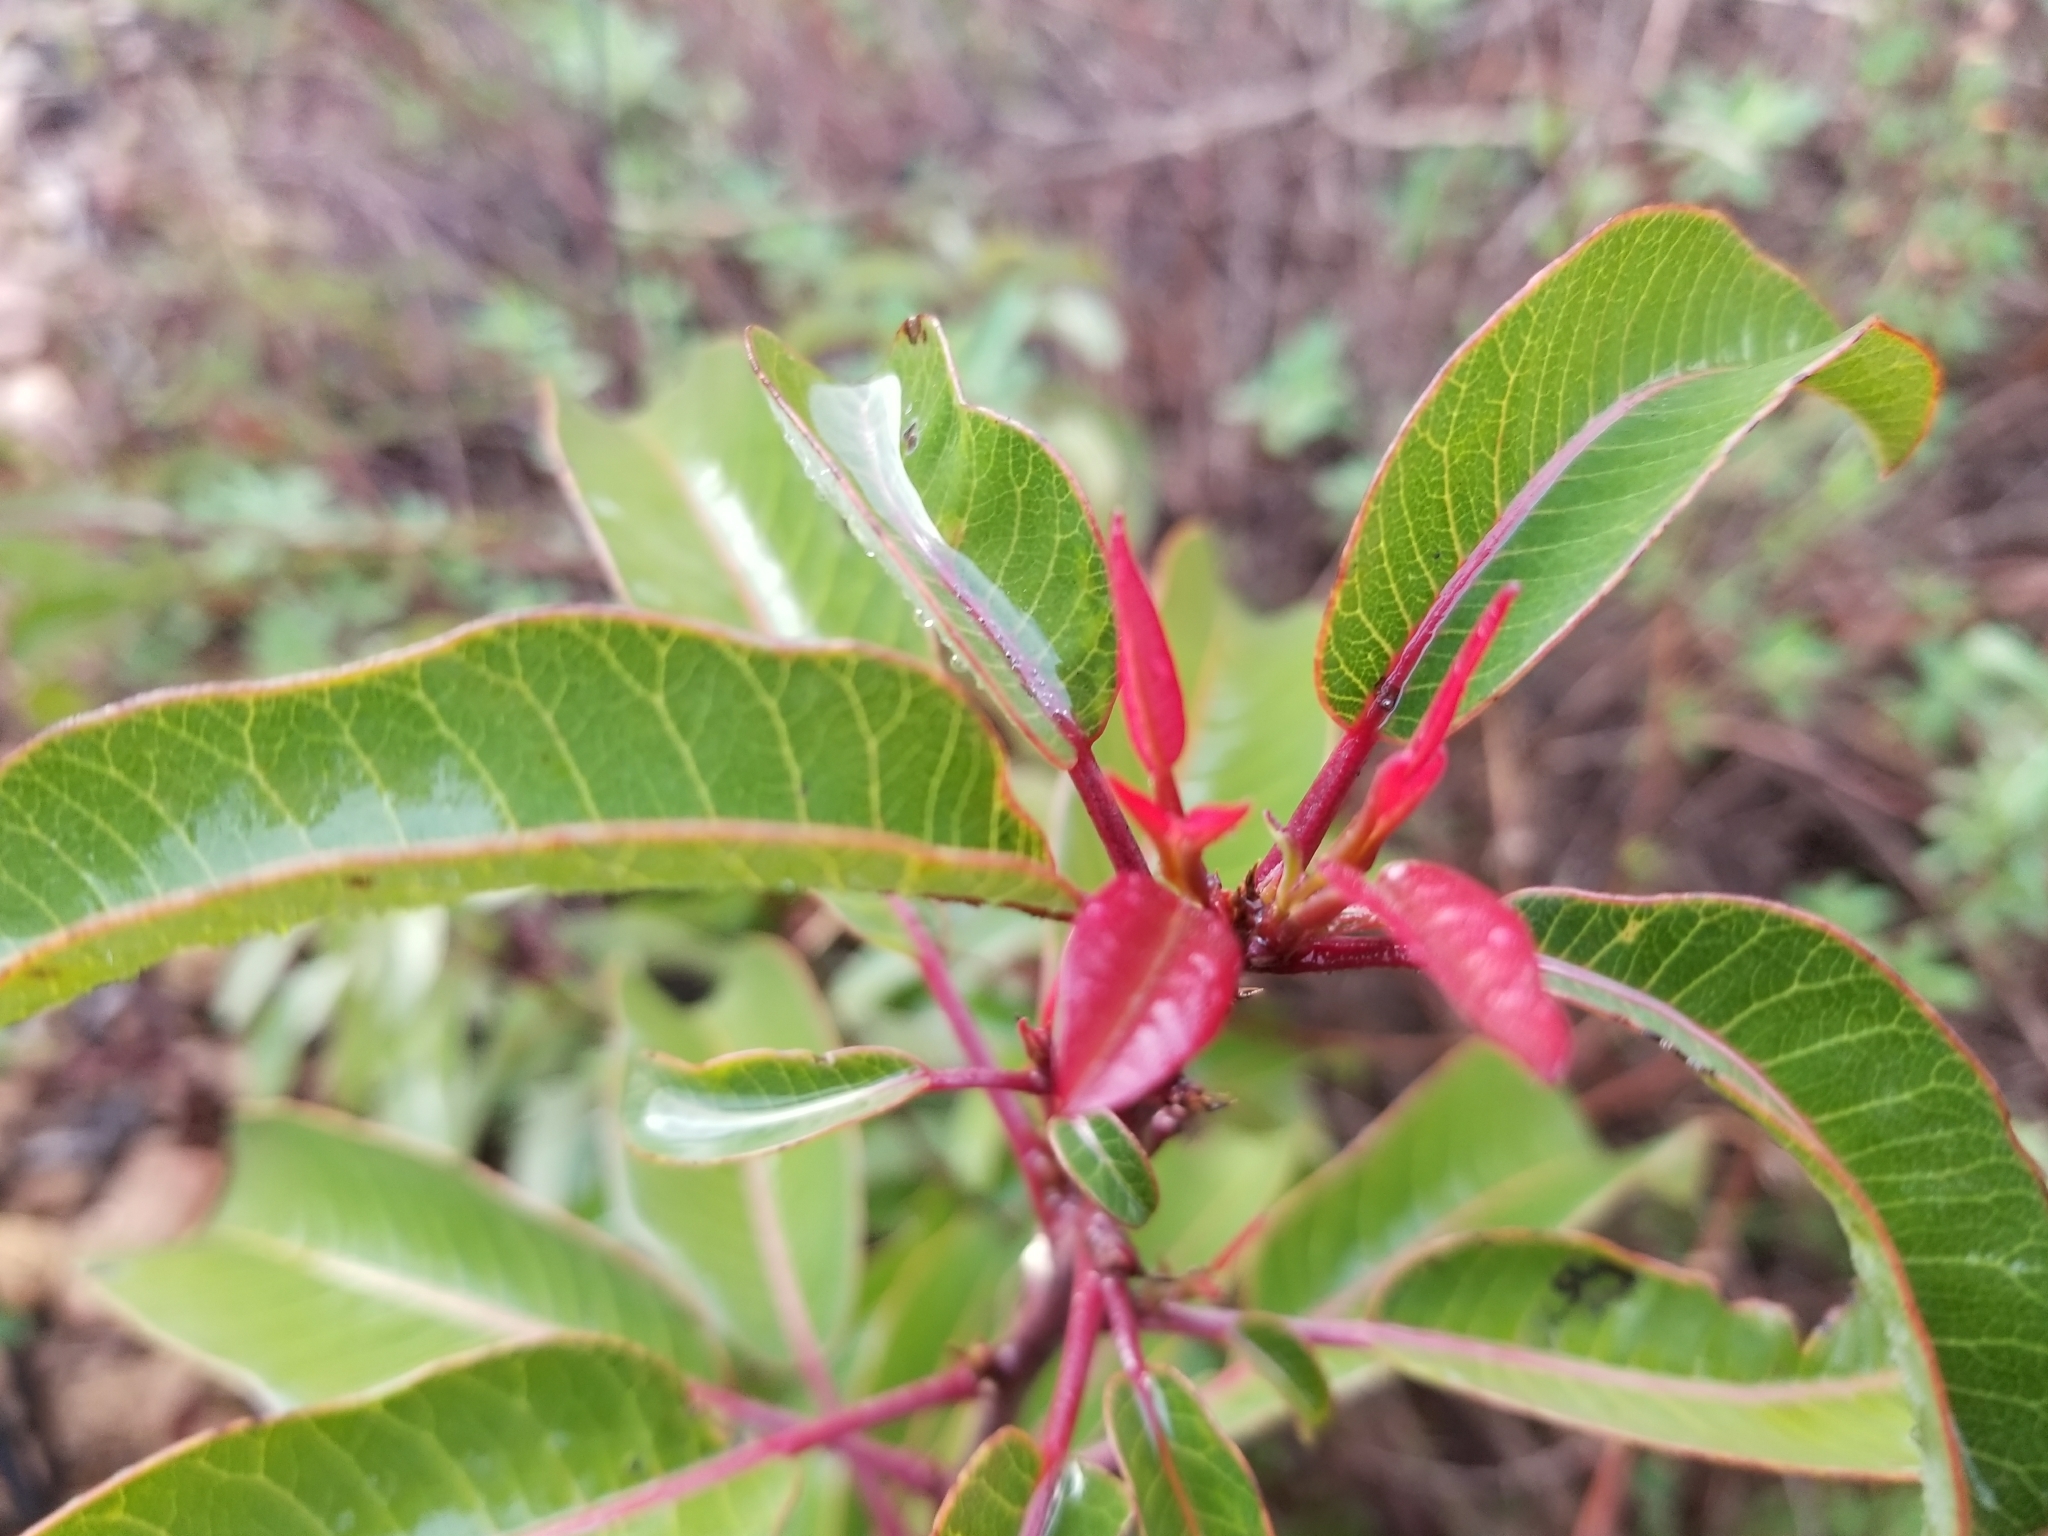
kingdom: Plantae
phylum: Tracheophyta
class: Magnoliopsida
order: Sapindales
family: Anacardiaceae
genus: Malosma
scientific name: Malosma laurina
